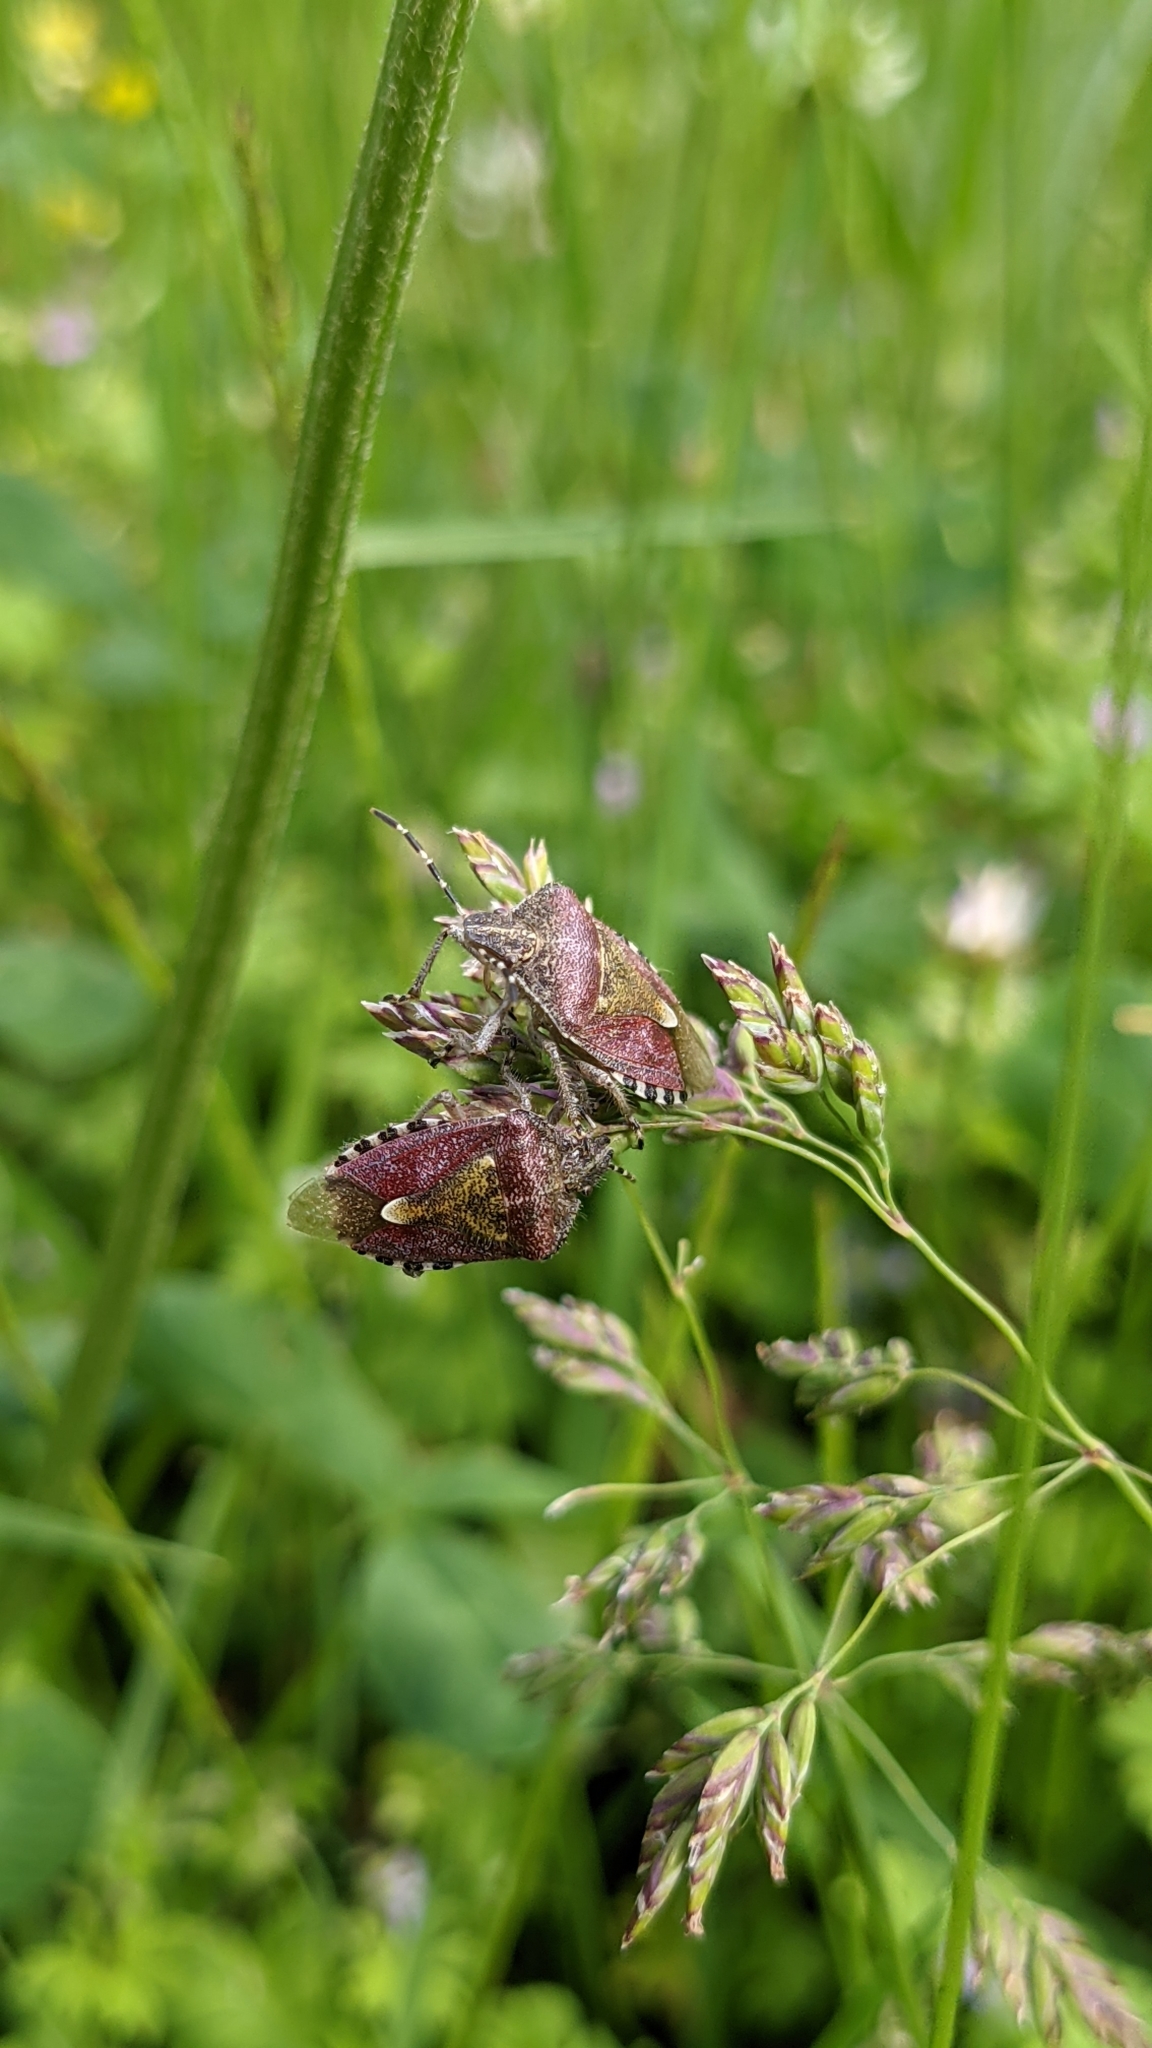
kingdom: Animalia
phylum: Arthropoda
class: Insecta
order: Hemiptera
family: Pentatomidae
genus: Dolycoris
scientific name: Dolycoris baccarum
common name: Sloe bug
